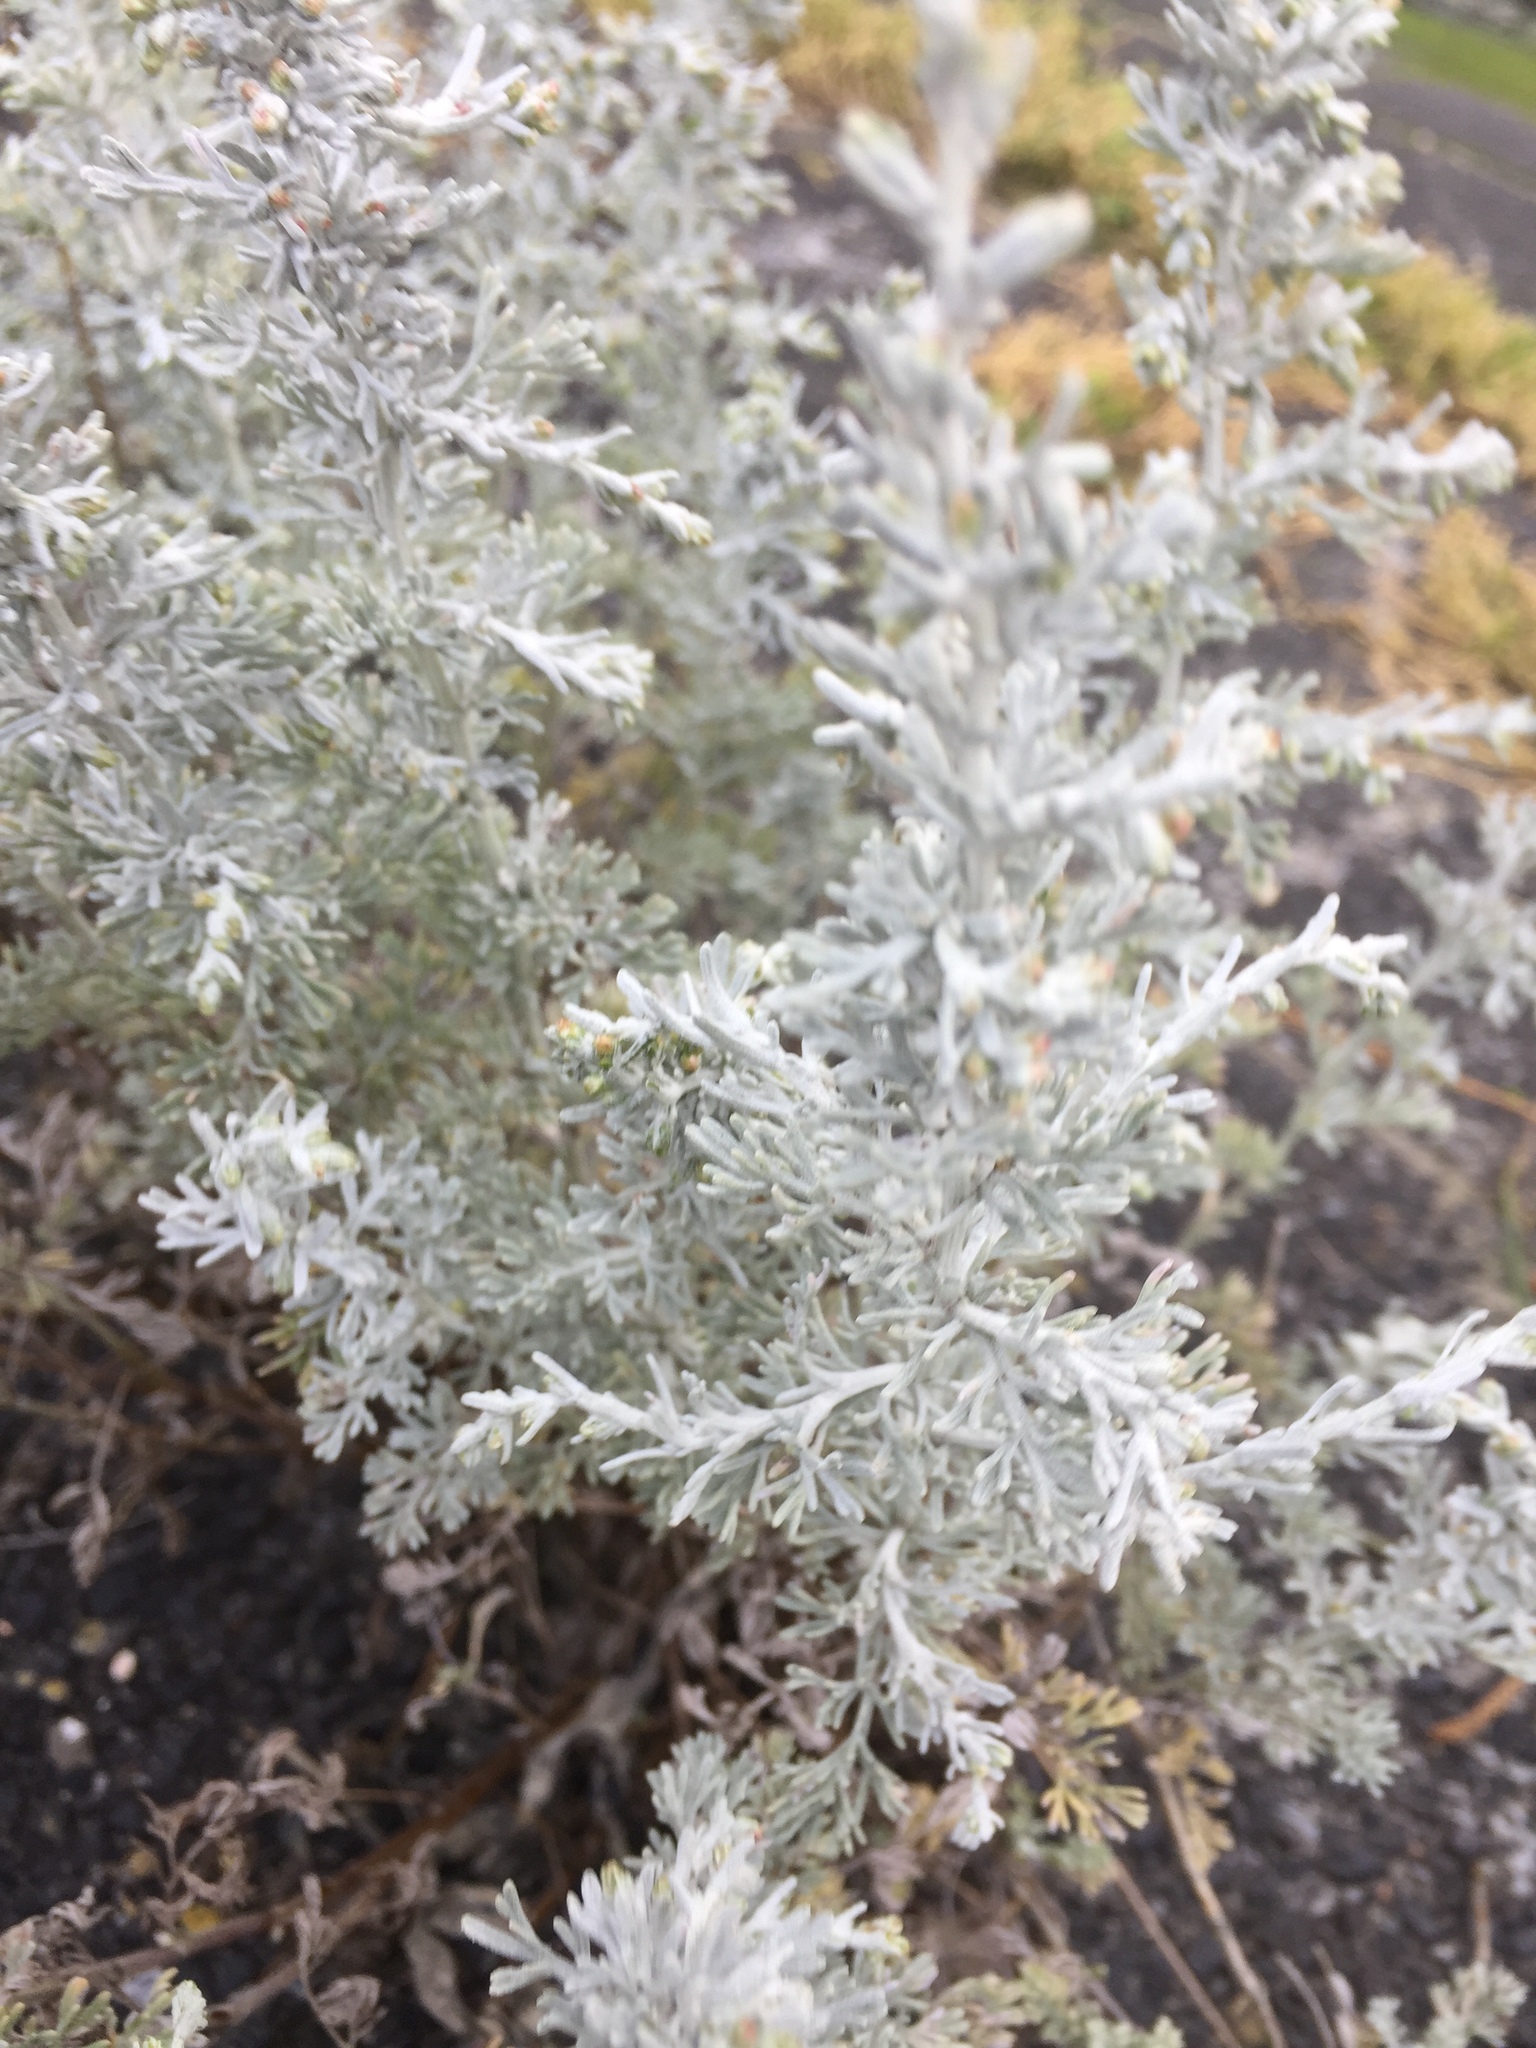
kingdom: Plantae
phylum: Tracheophyta
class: Magnoliopsida
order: Asterales
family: Asteraceae
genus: Artemisia
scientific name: Artemisia maritima
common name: Wormseed
